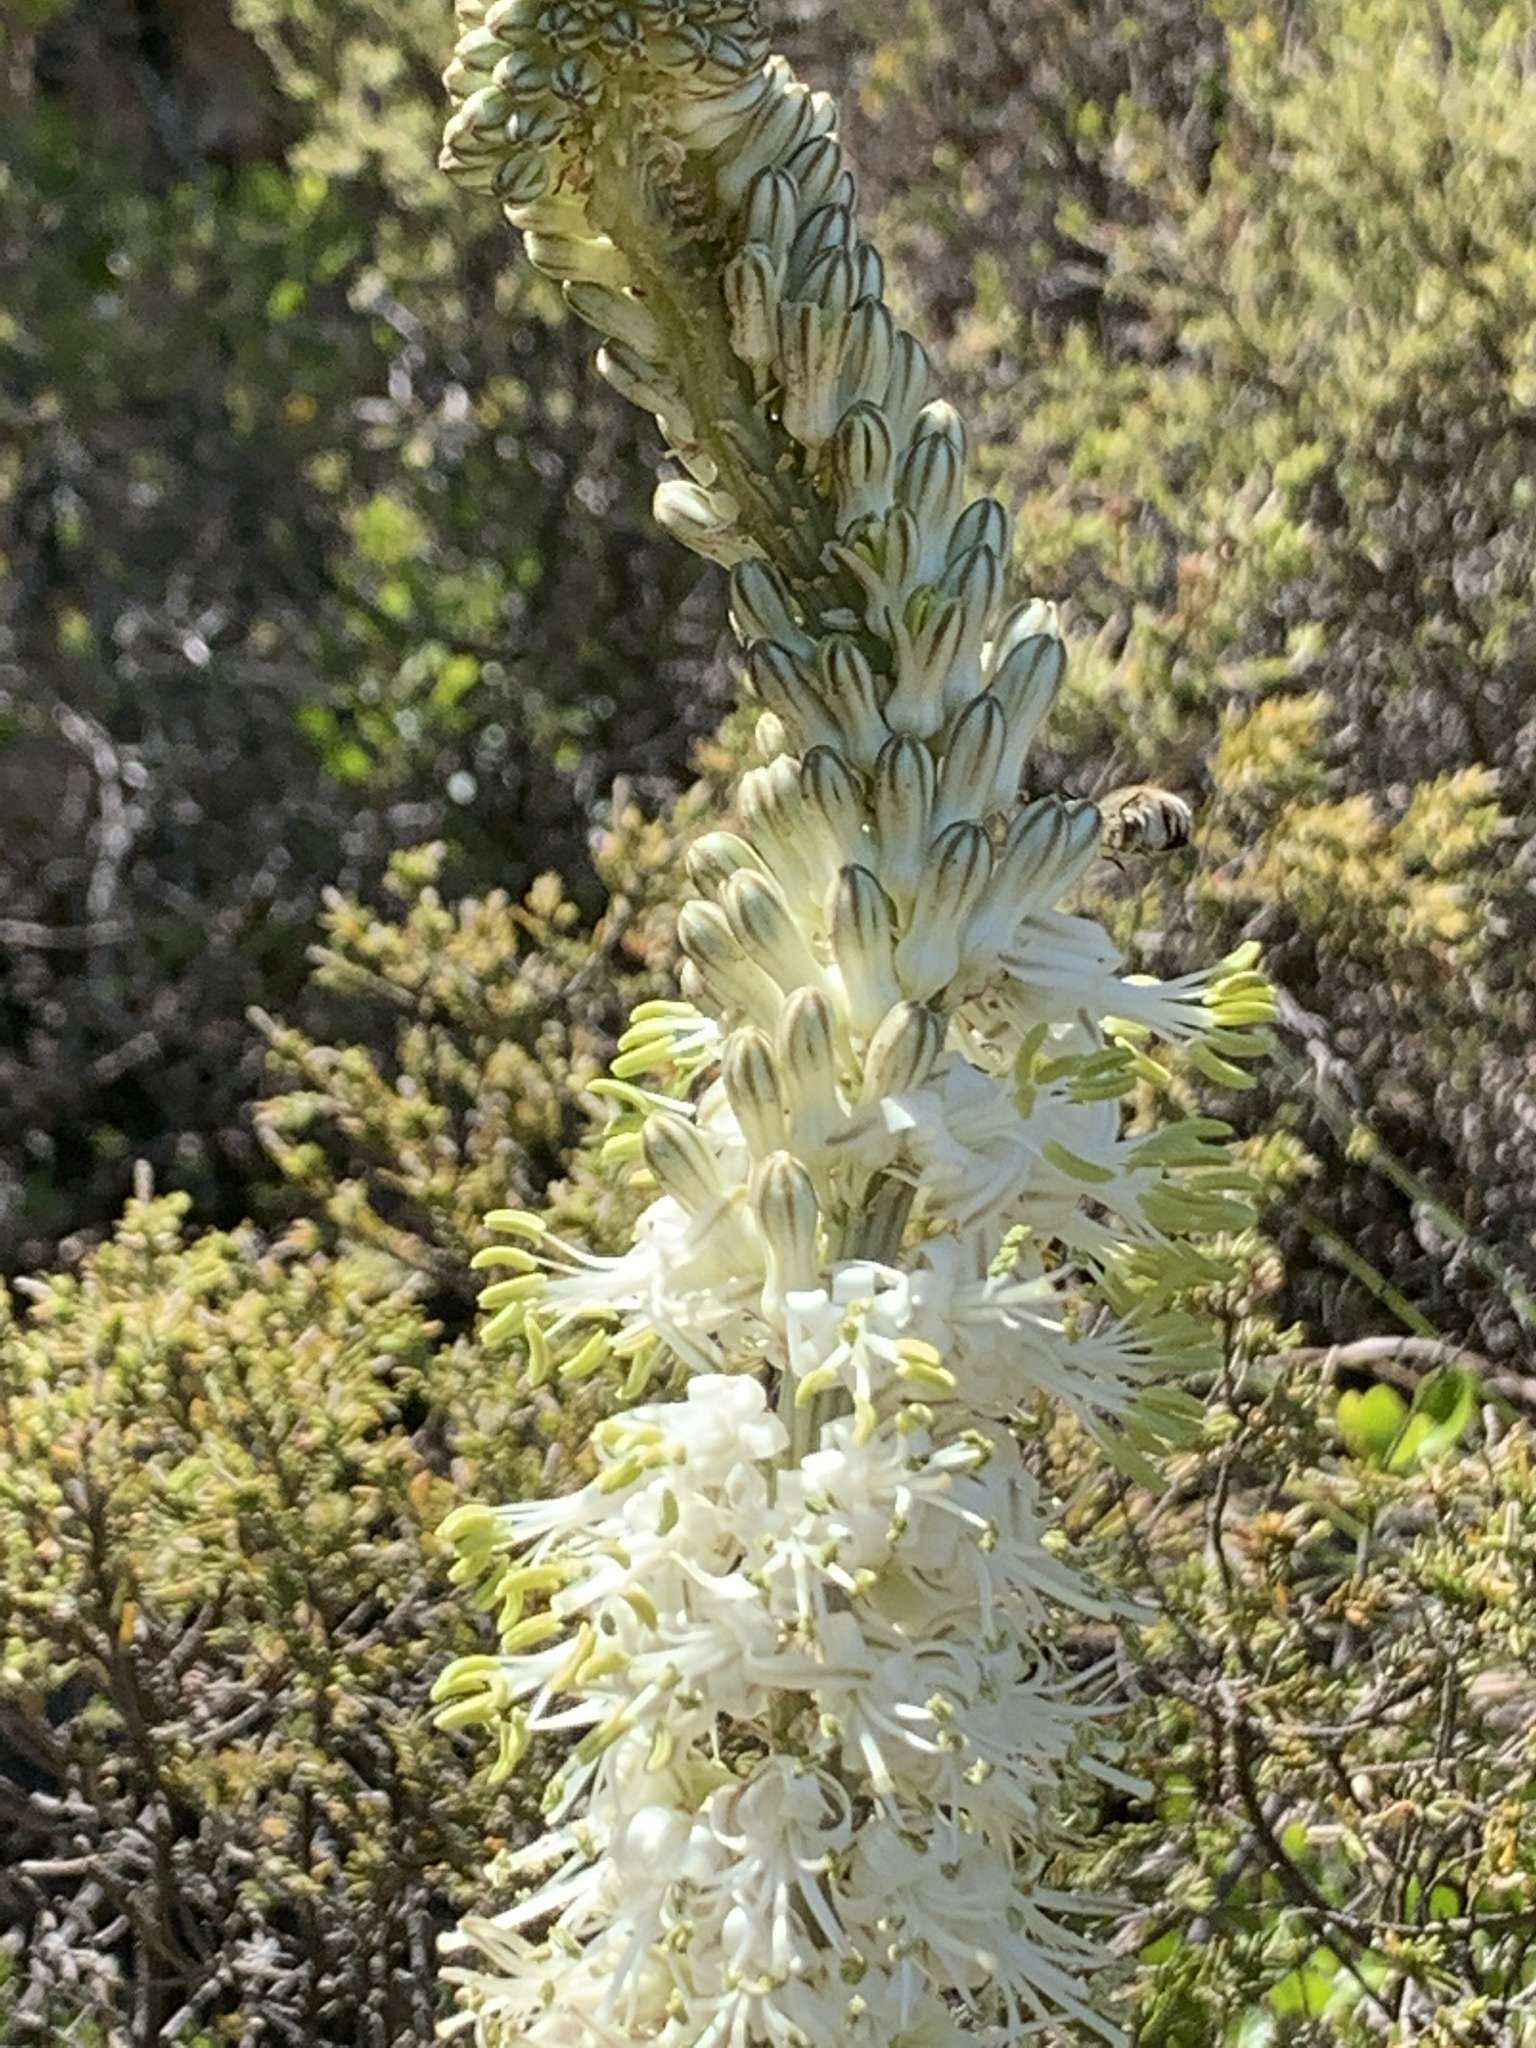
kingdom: Plantae
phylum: Tracheophyta
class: Liliopsida
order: Asparagales
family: Asparagaceae
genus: Drimia
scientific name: Drimia capensis
